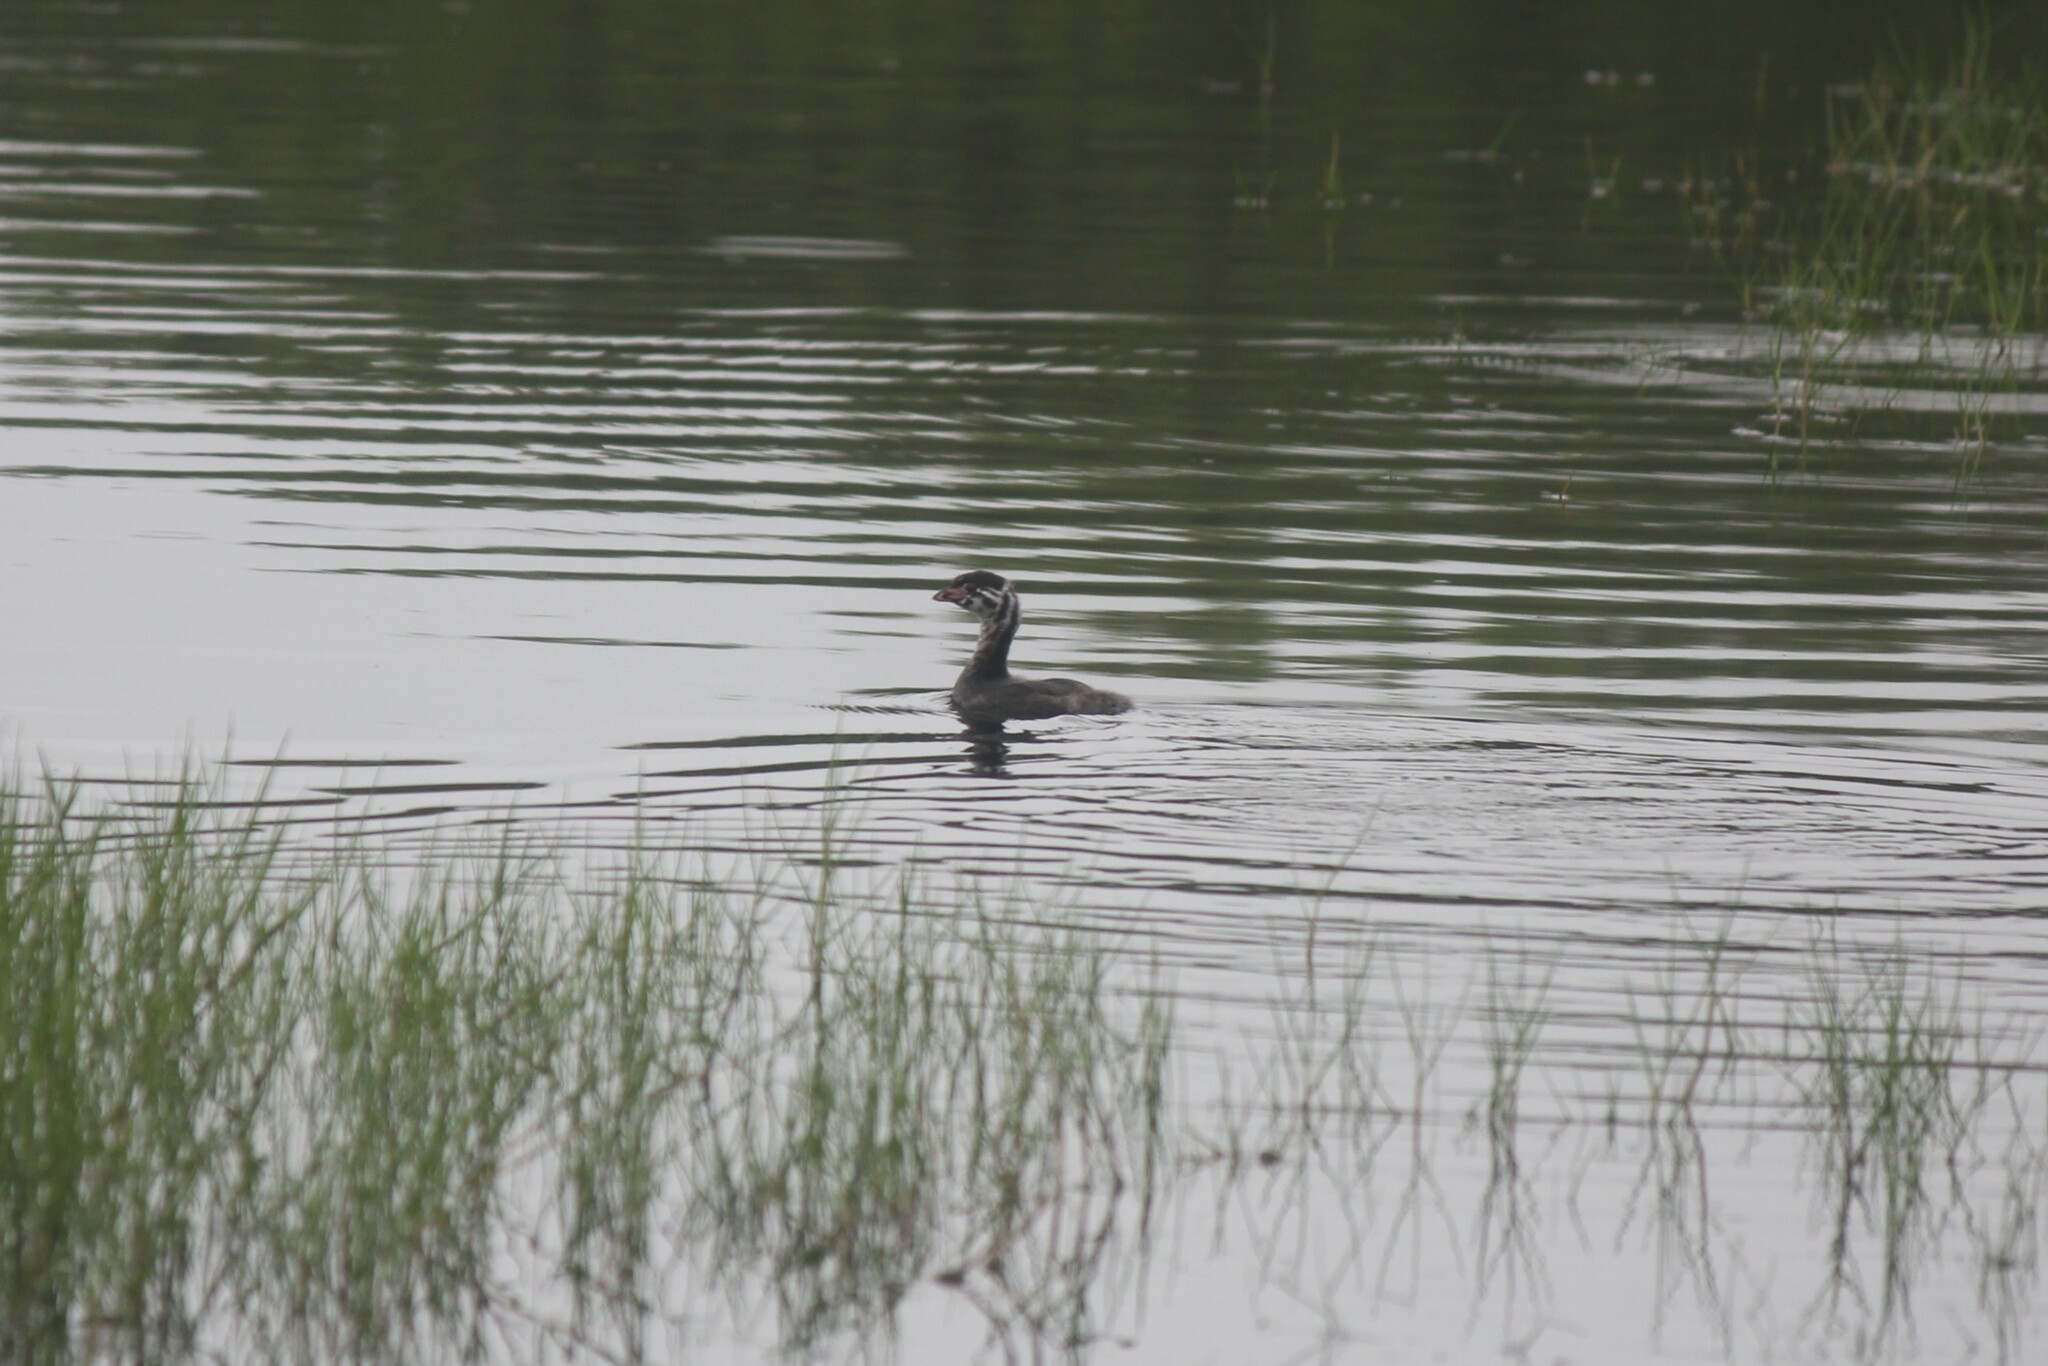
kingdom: Animalia
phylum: Chordata
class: Aves
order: Podicipediformes
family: Podicipedidae
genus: Podilymbus
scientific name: Podilymbus podiceps
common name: Pied-billed grebe
